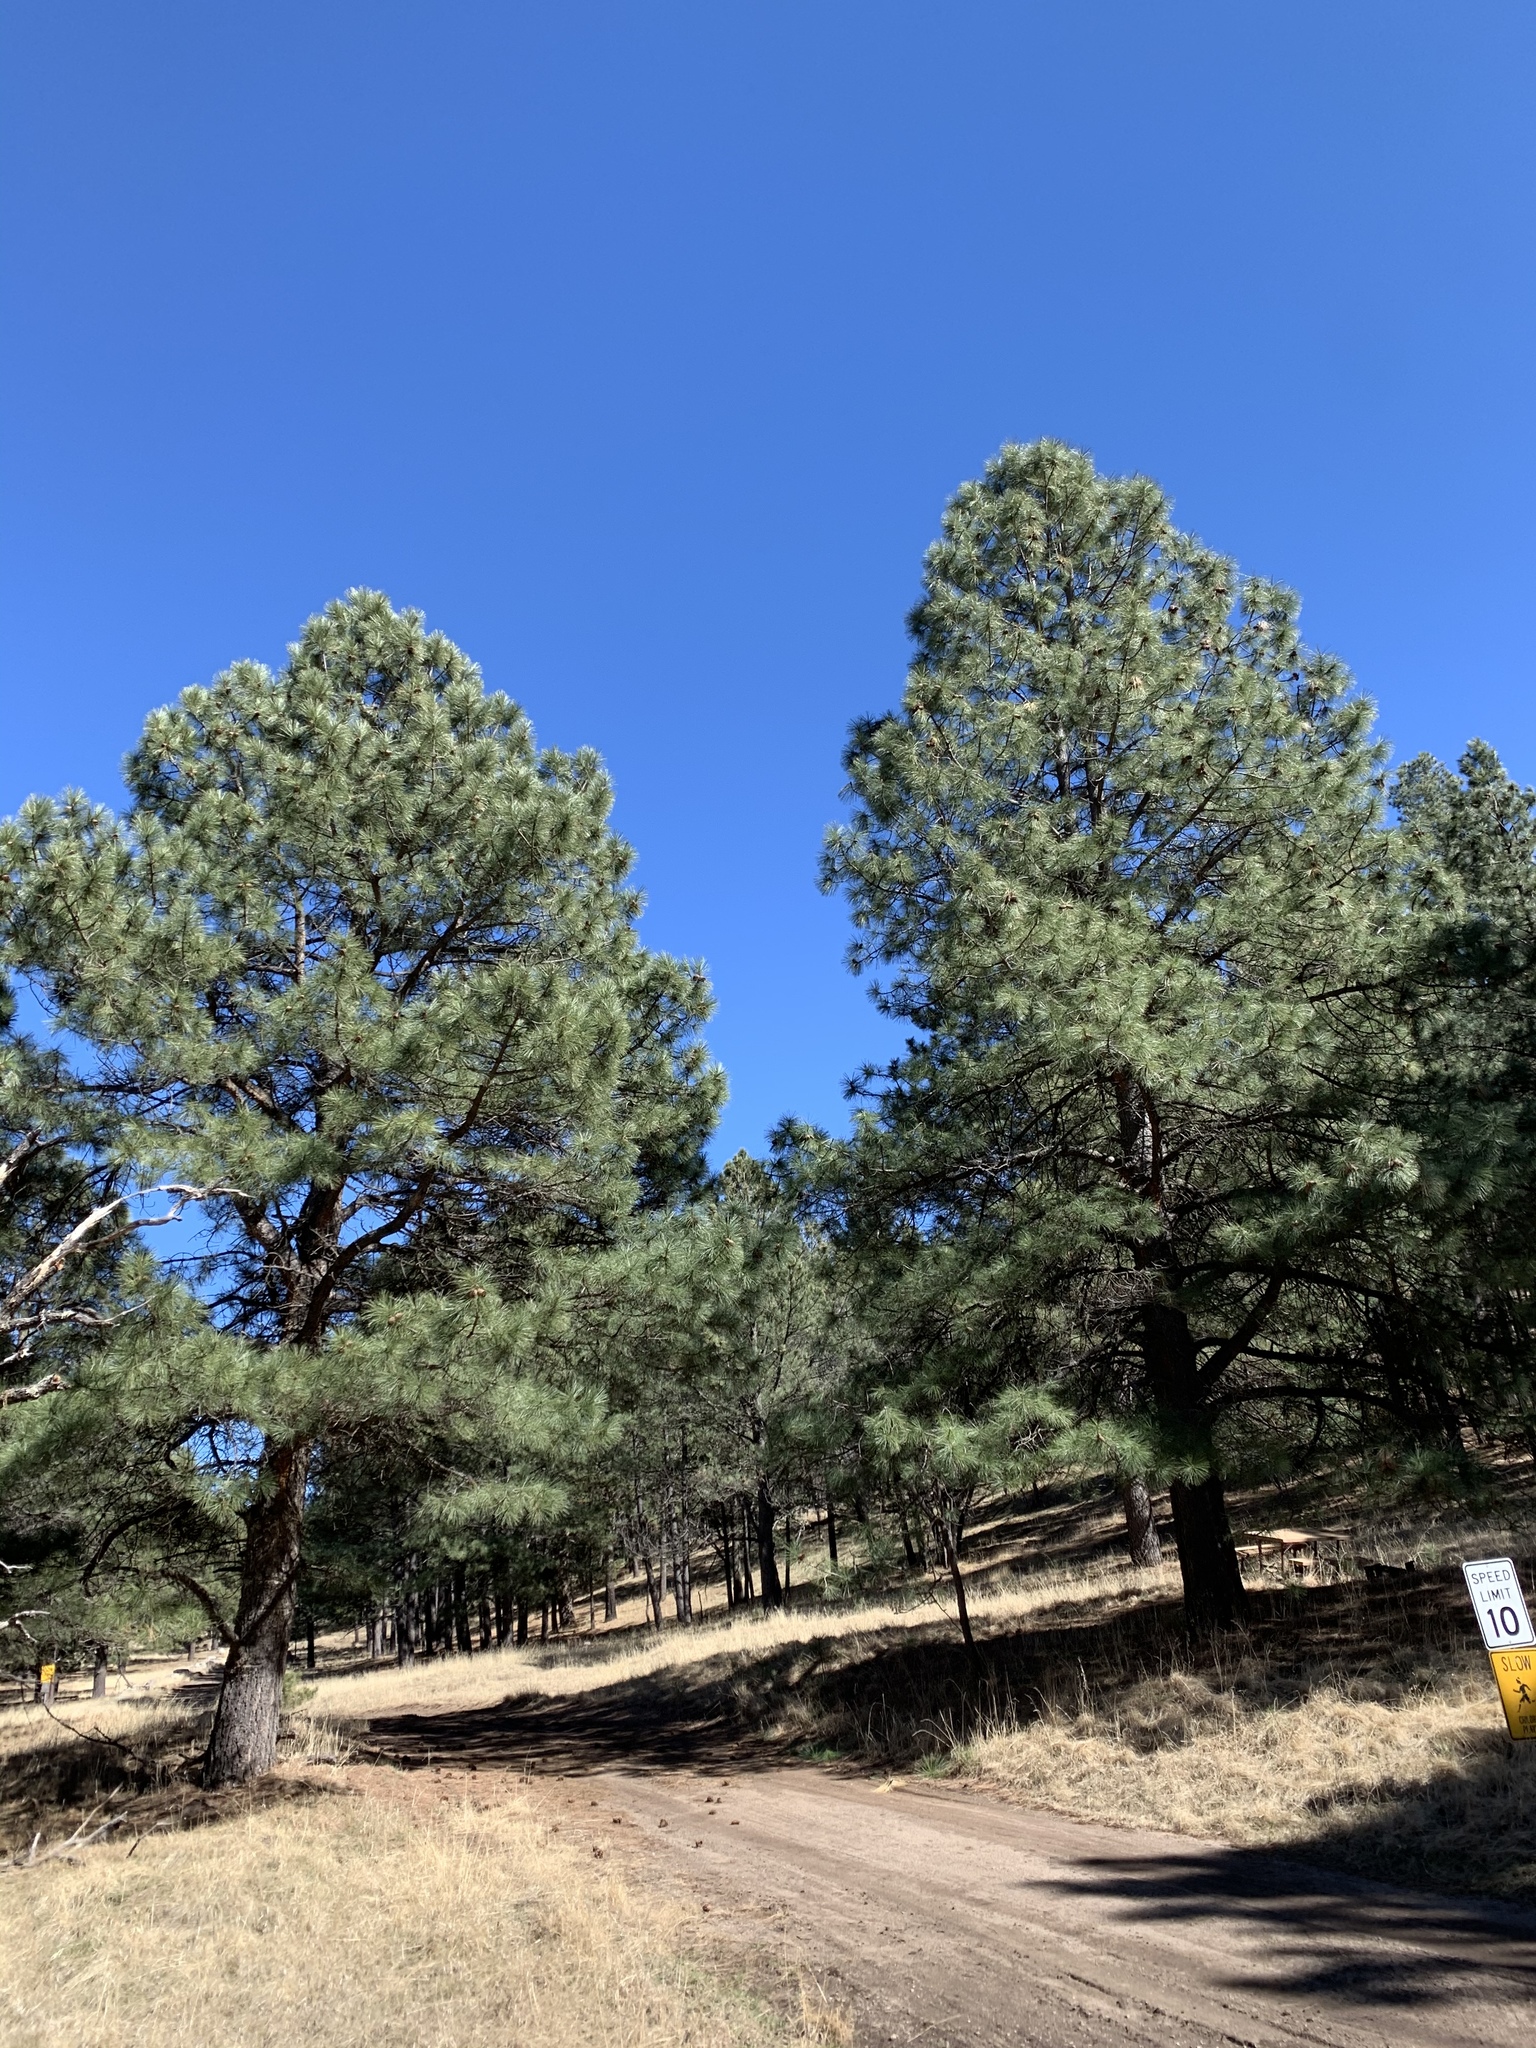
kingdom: Plantae
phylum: Tracheophyta
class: Pinopsida
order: Pinales
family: Pinaceae
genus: Pinus
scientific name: Pinus ponderosa
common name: Western yellow-pine
